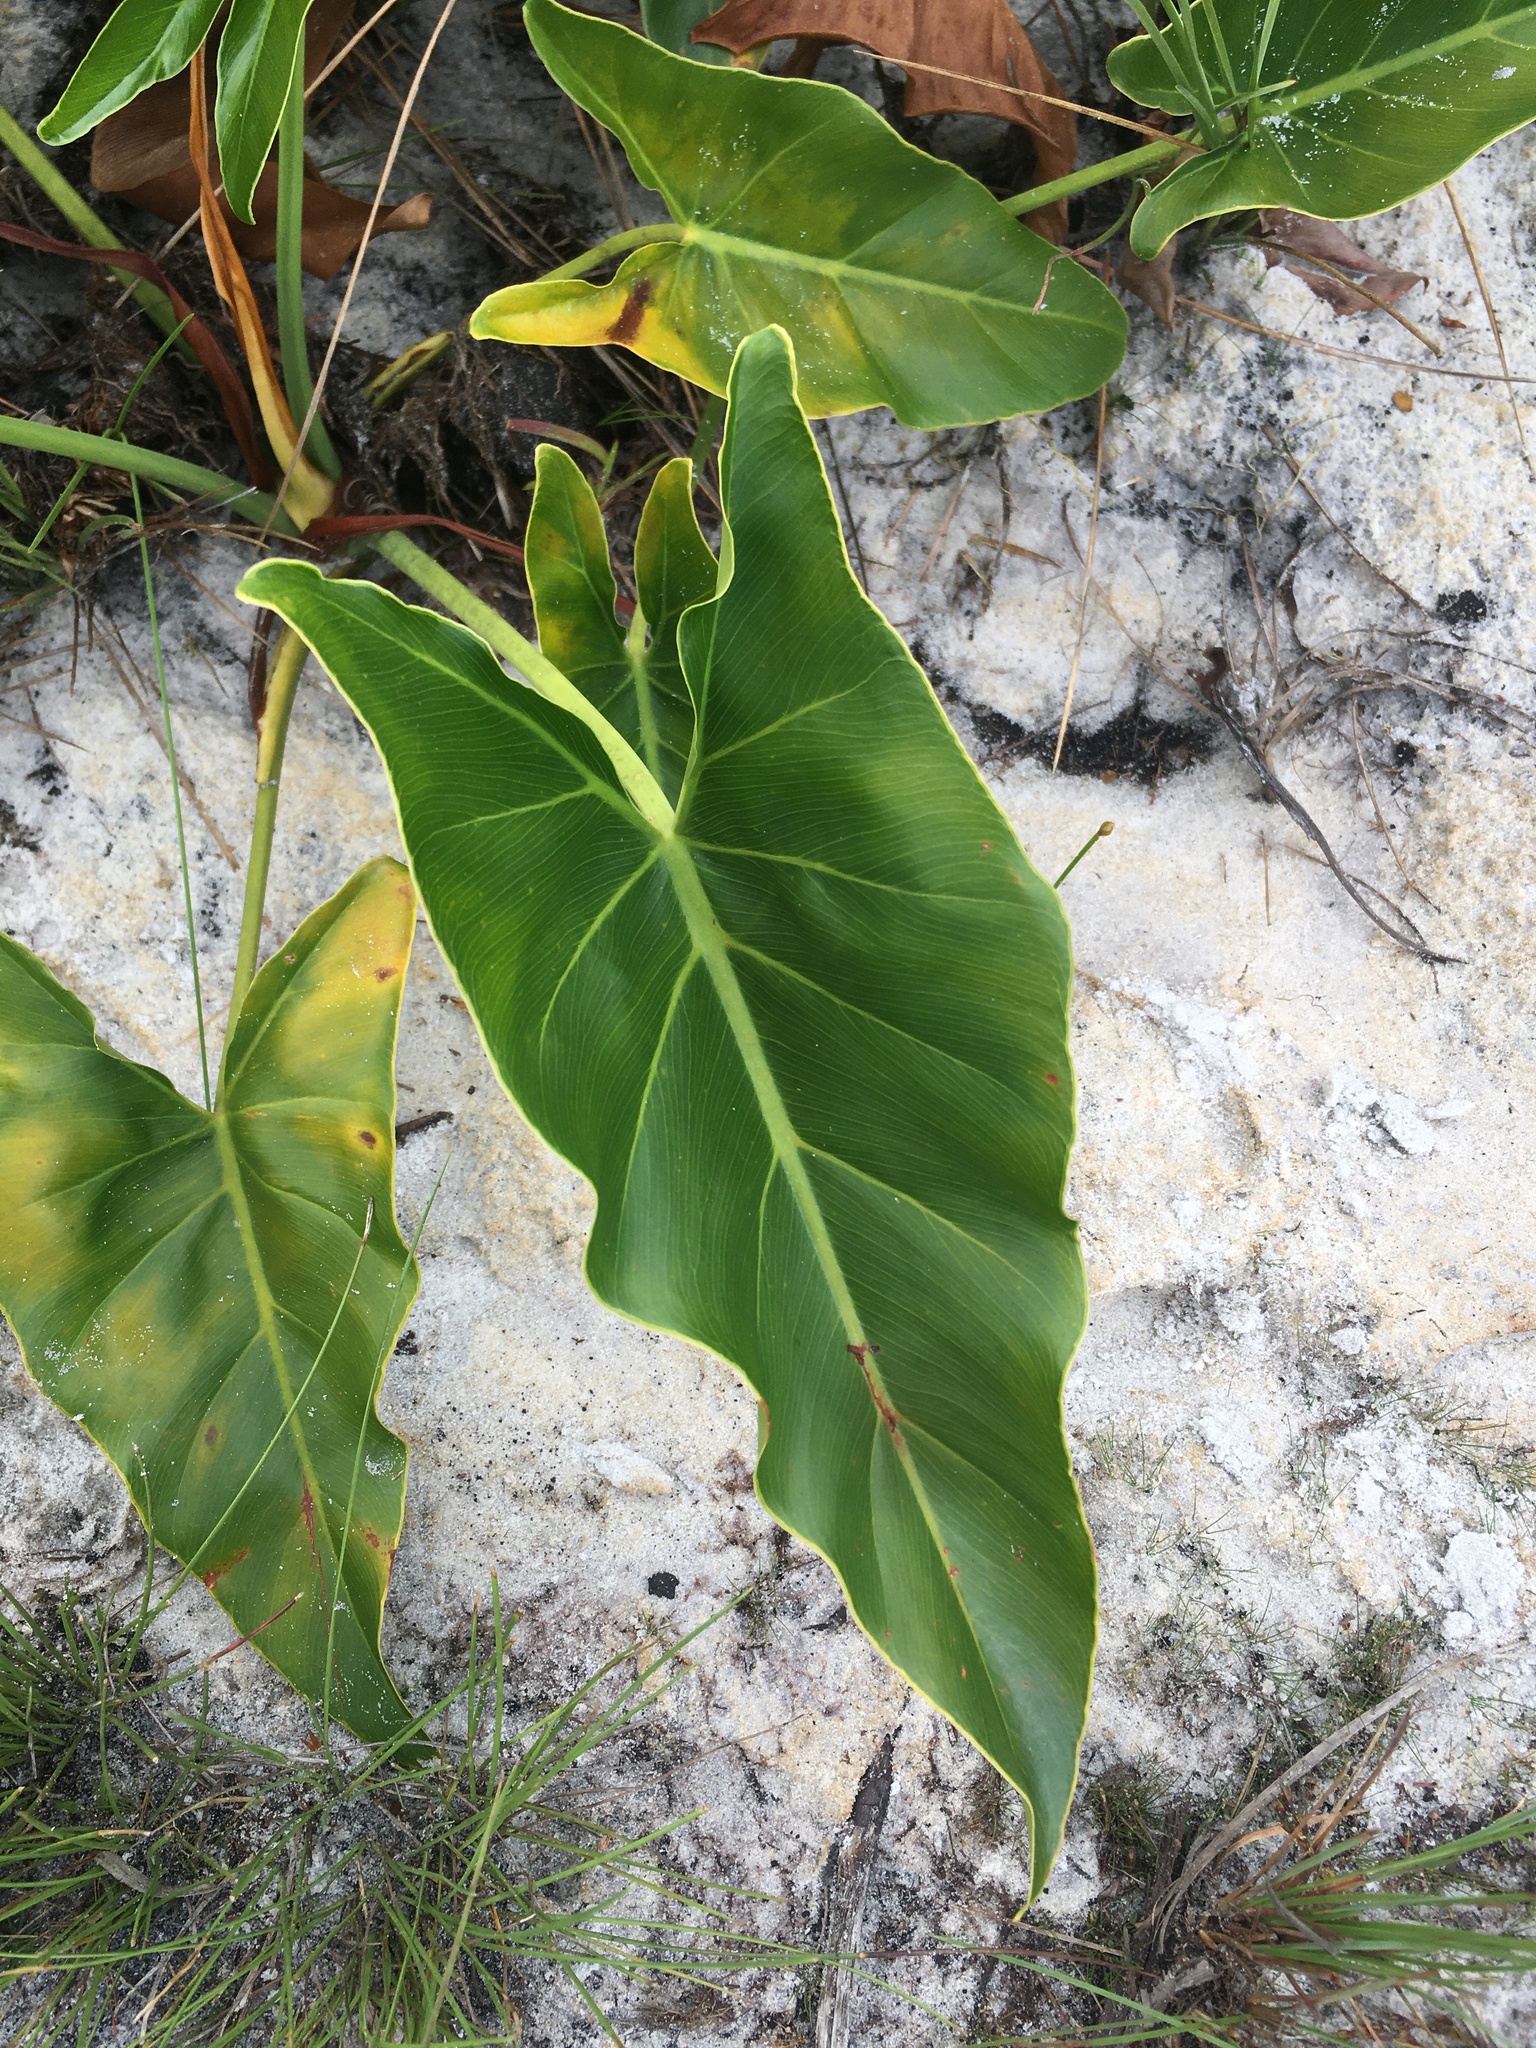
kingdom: Plantae
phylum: Tracheophyta
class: Liliopsida
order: Alismatales
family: Araceae
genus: Thaumatophyllum
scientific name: Thaumatophyllum uliginosum
